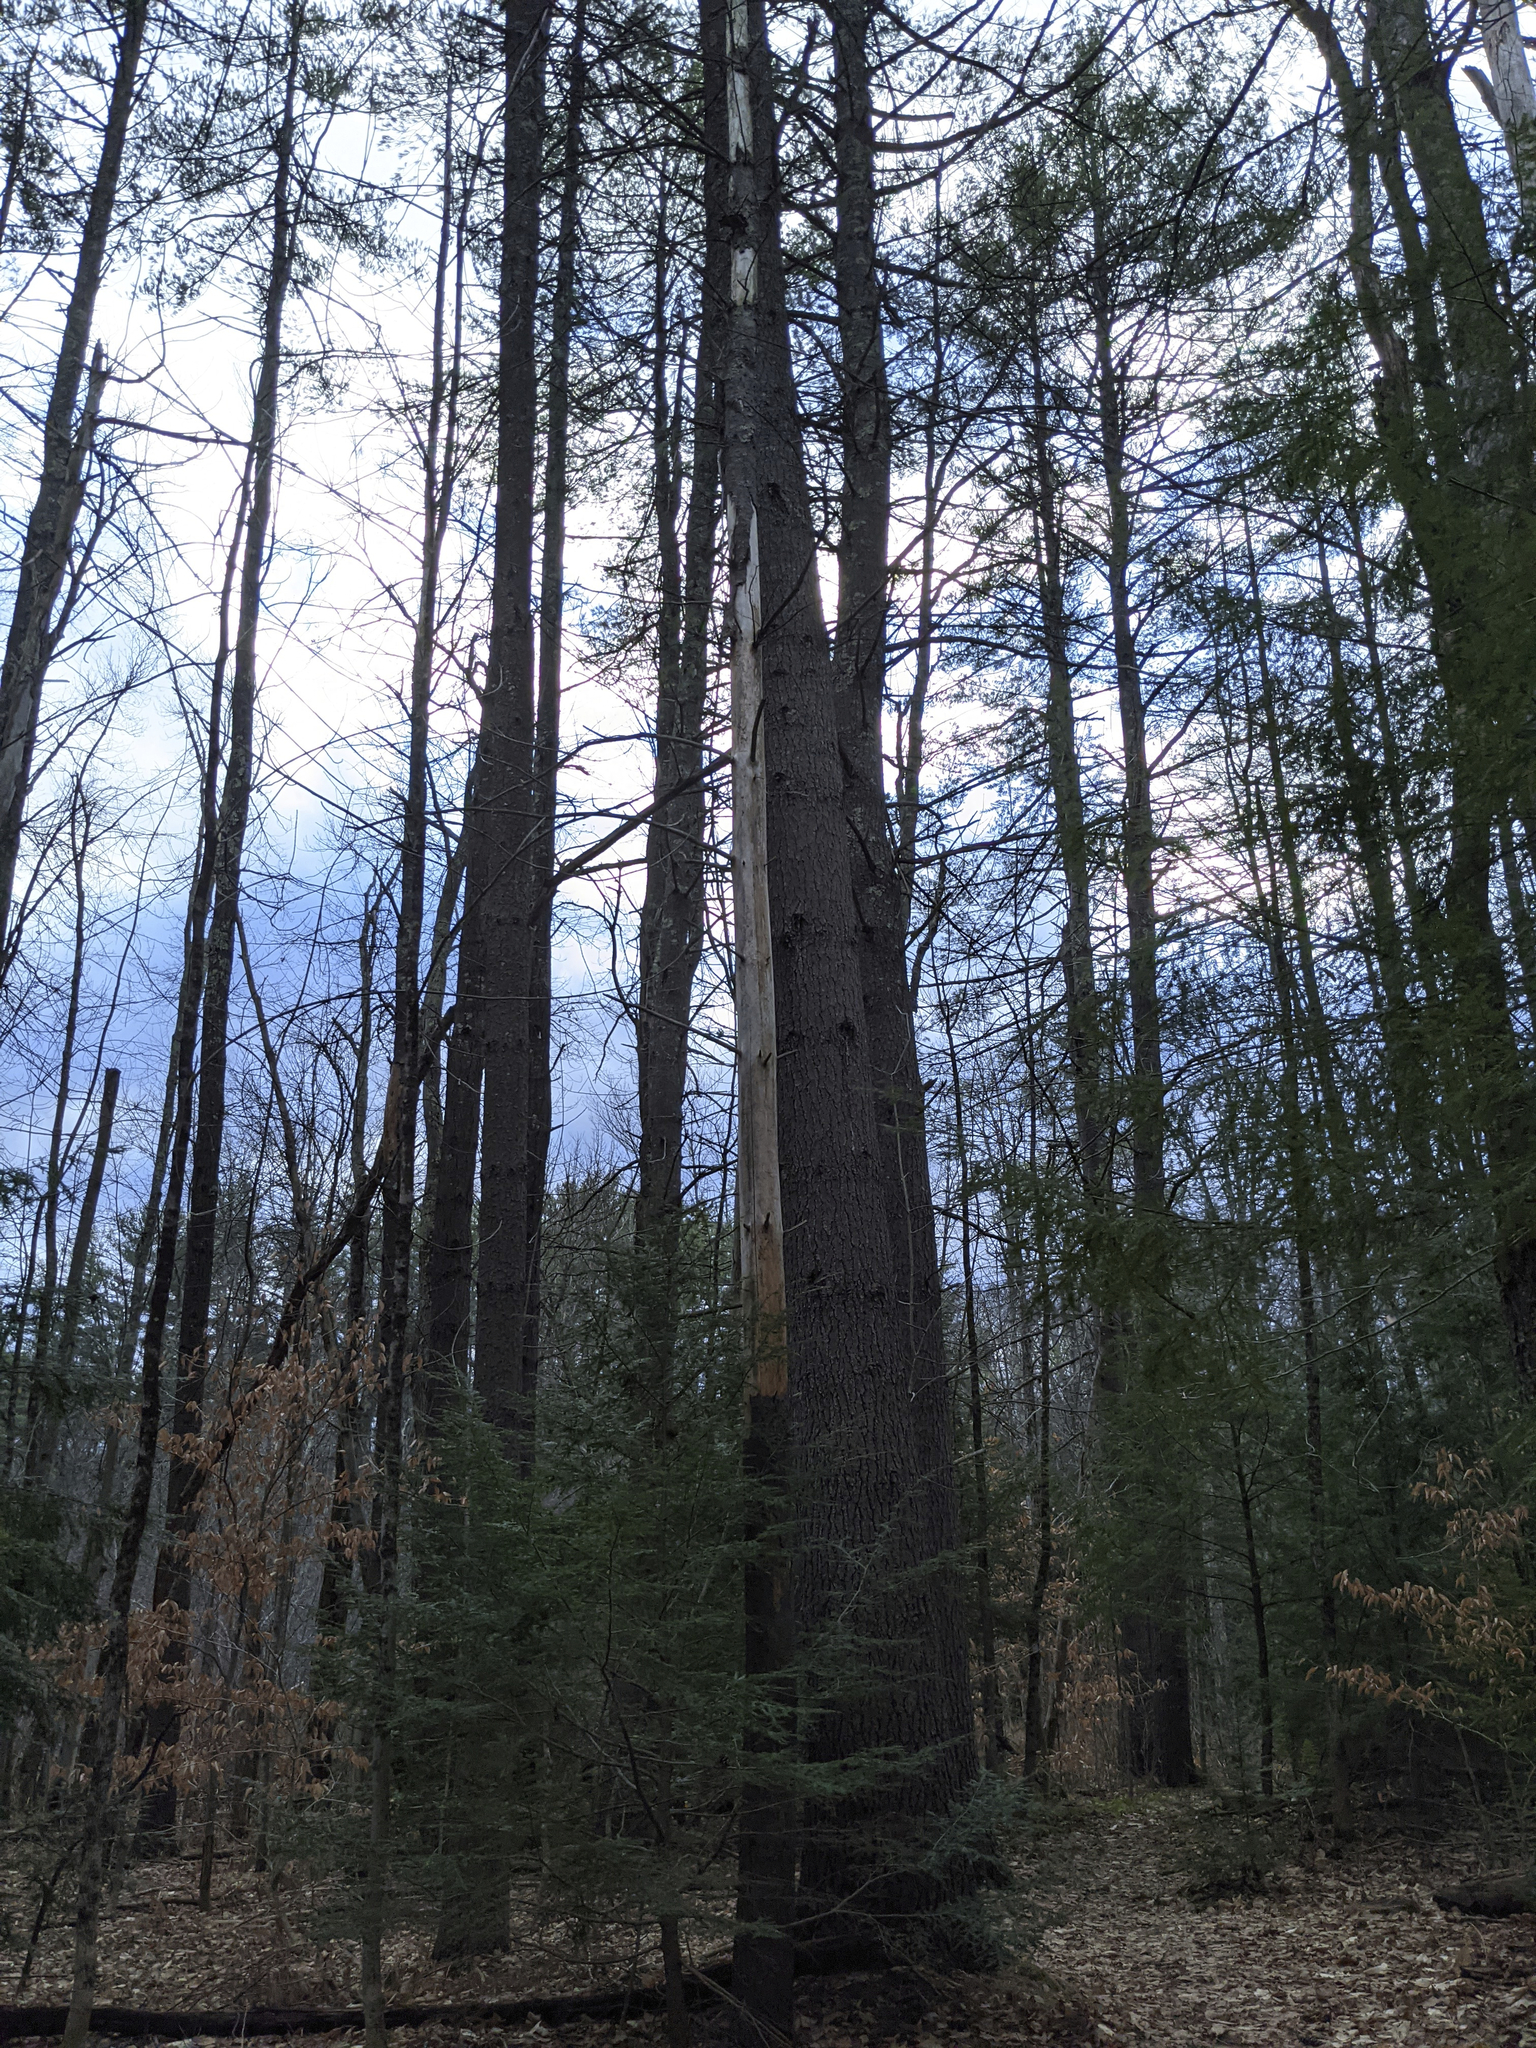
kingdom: Plantae
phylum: Tracheophyta
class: Pinopsida
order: Pinales
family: Pinaceae
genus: Pinus
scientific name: Pinus strobus
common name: Weymouth pine
